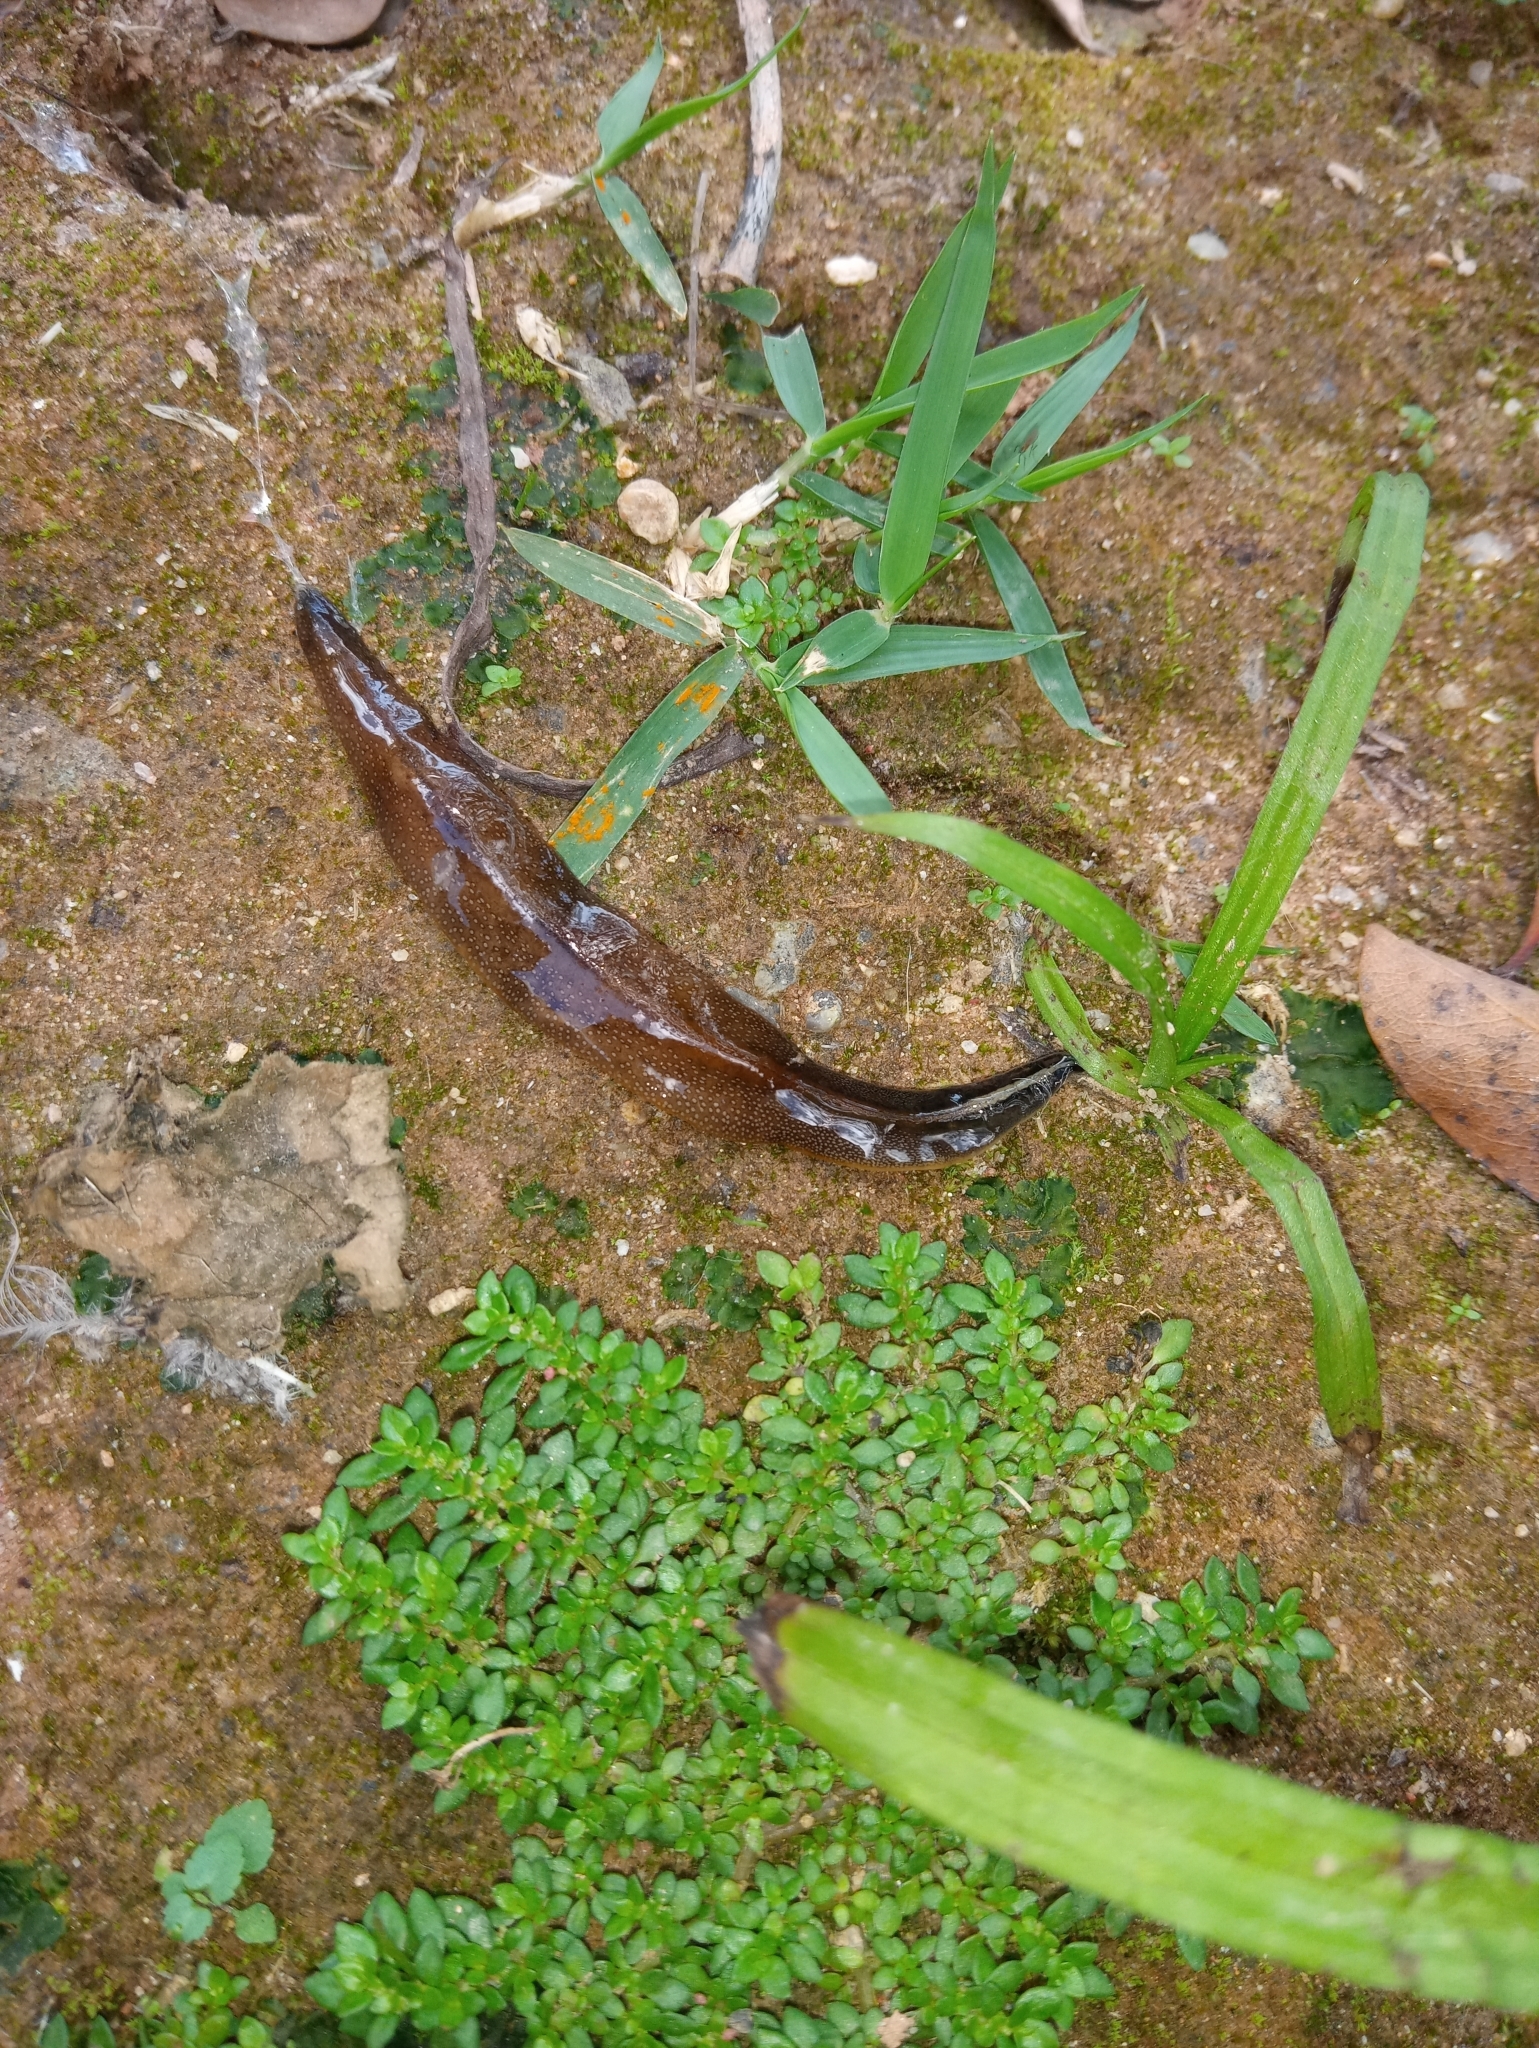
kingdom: Animalia
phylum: Platyhelminthes
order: Tricladida
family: Geoplanidae
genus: Obama
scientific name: Obama burmeisteri
